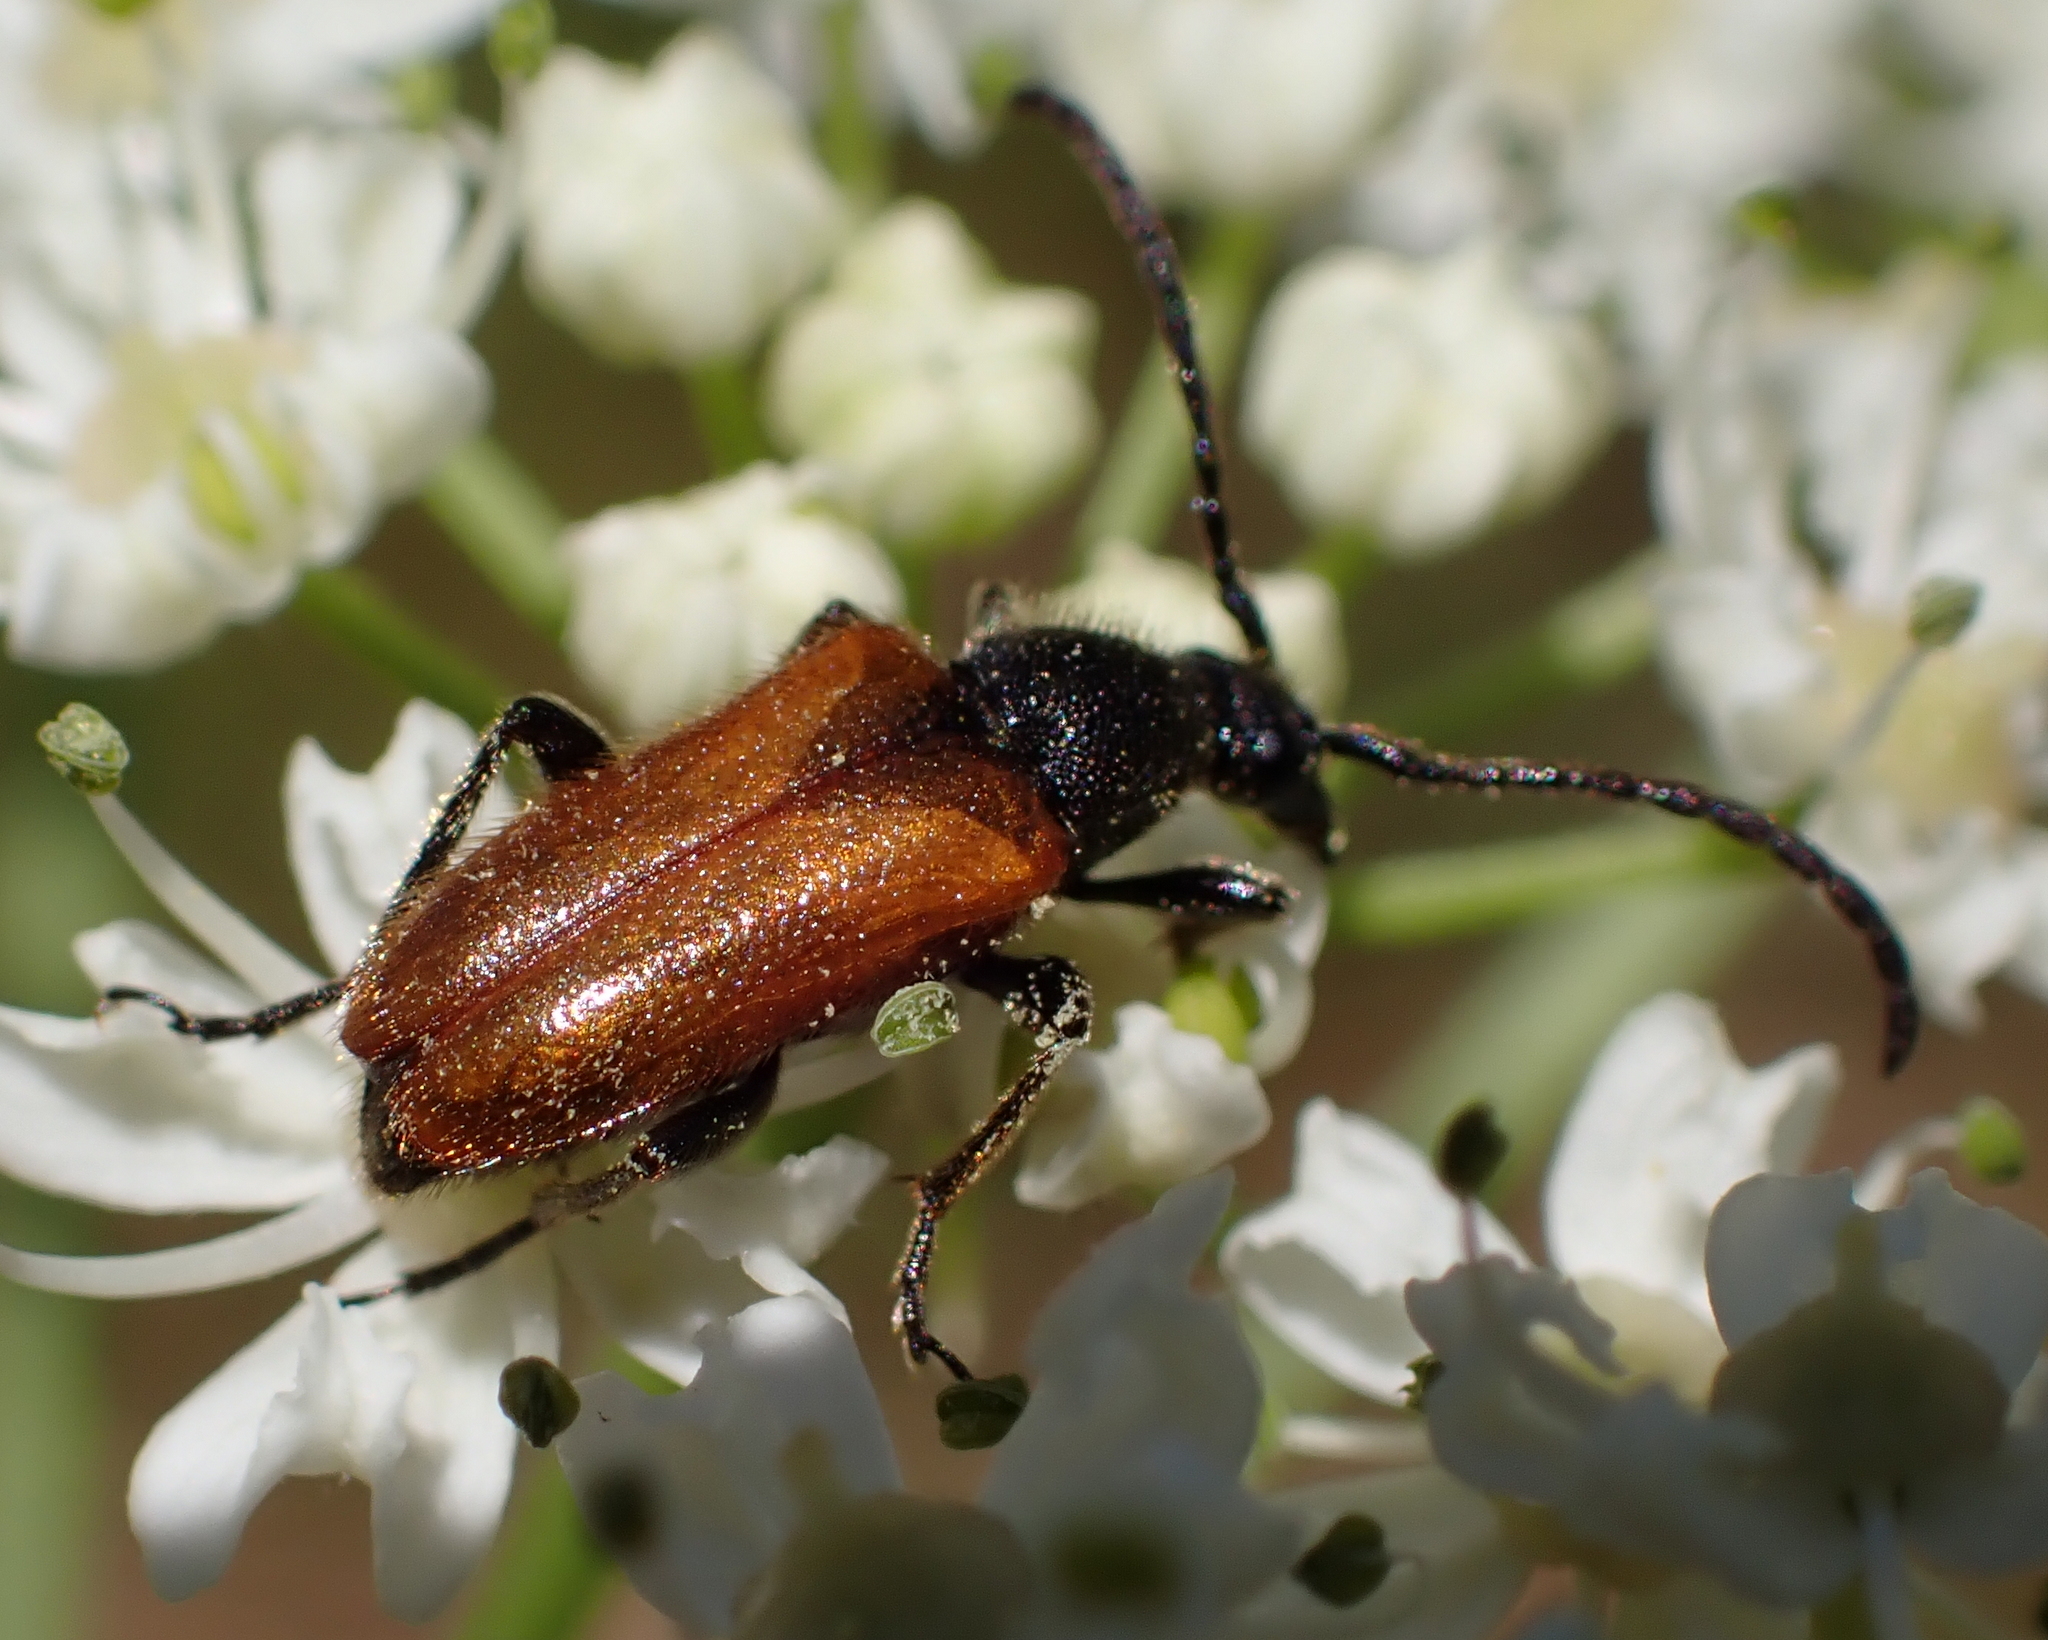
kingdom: Animalia
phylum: Arthropoda
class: Insecta
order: Coleoptera
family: Cerambycidae
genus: Pseudovadonia
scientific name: Pseudovadonia livida
